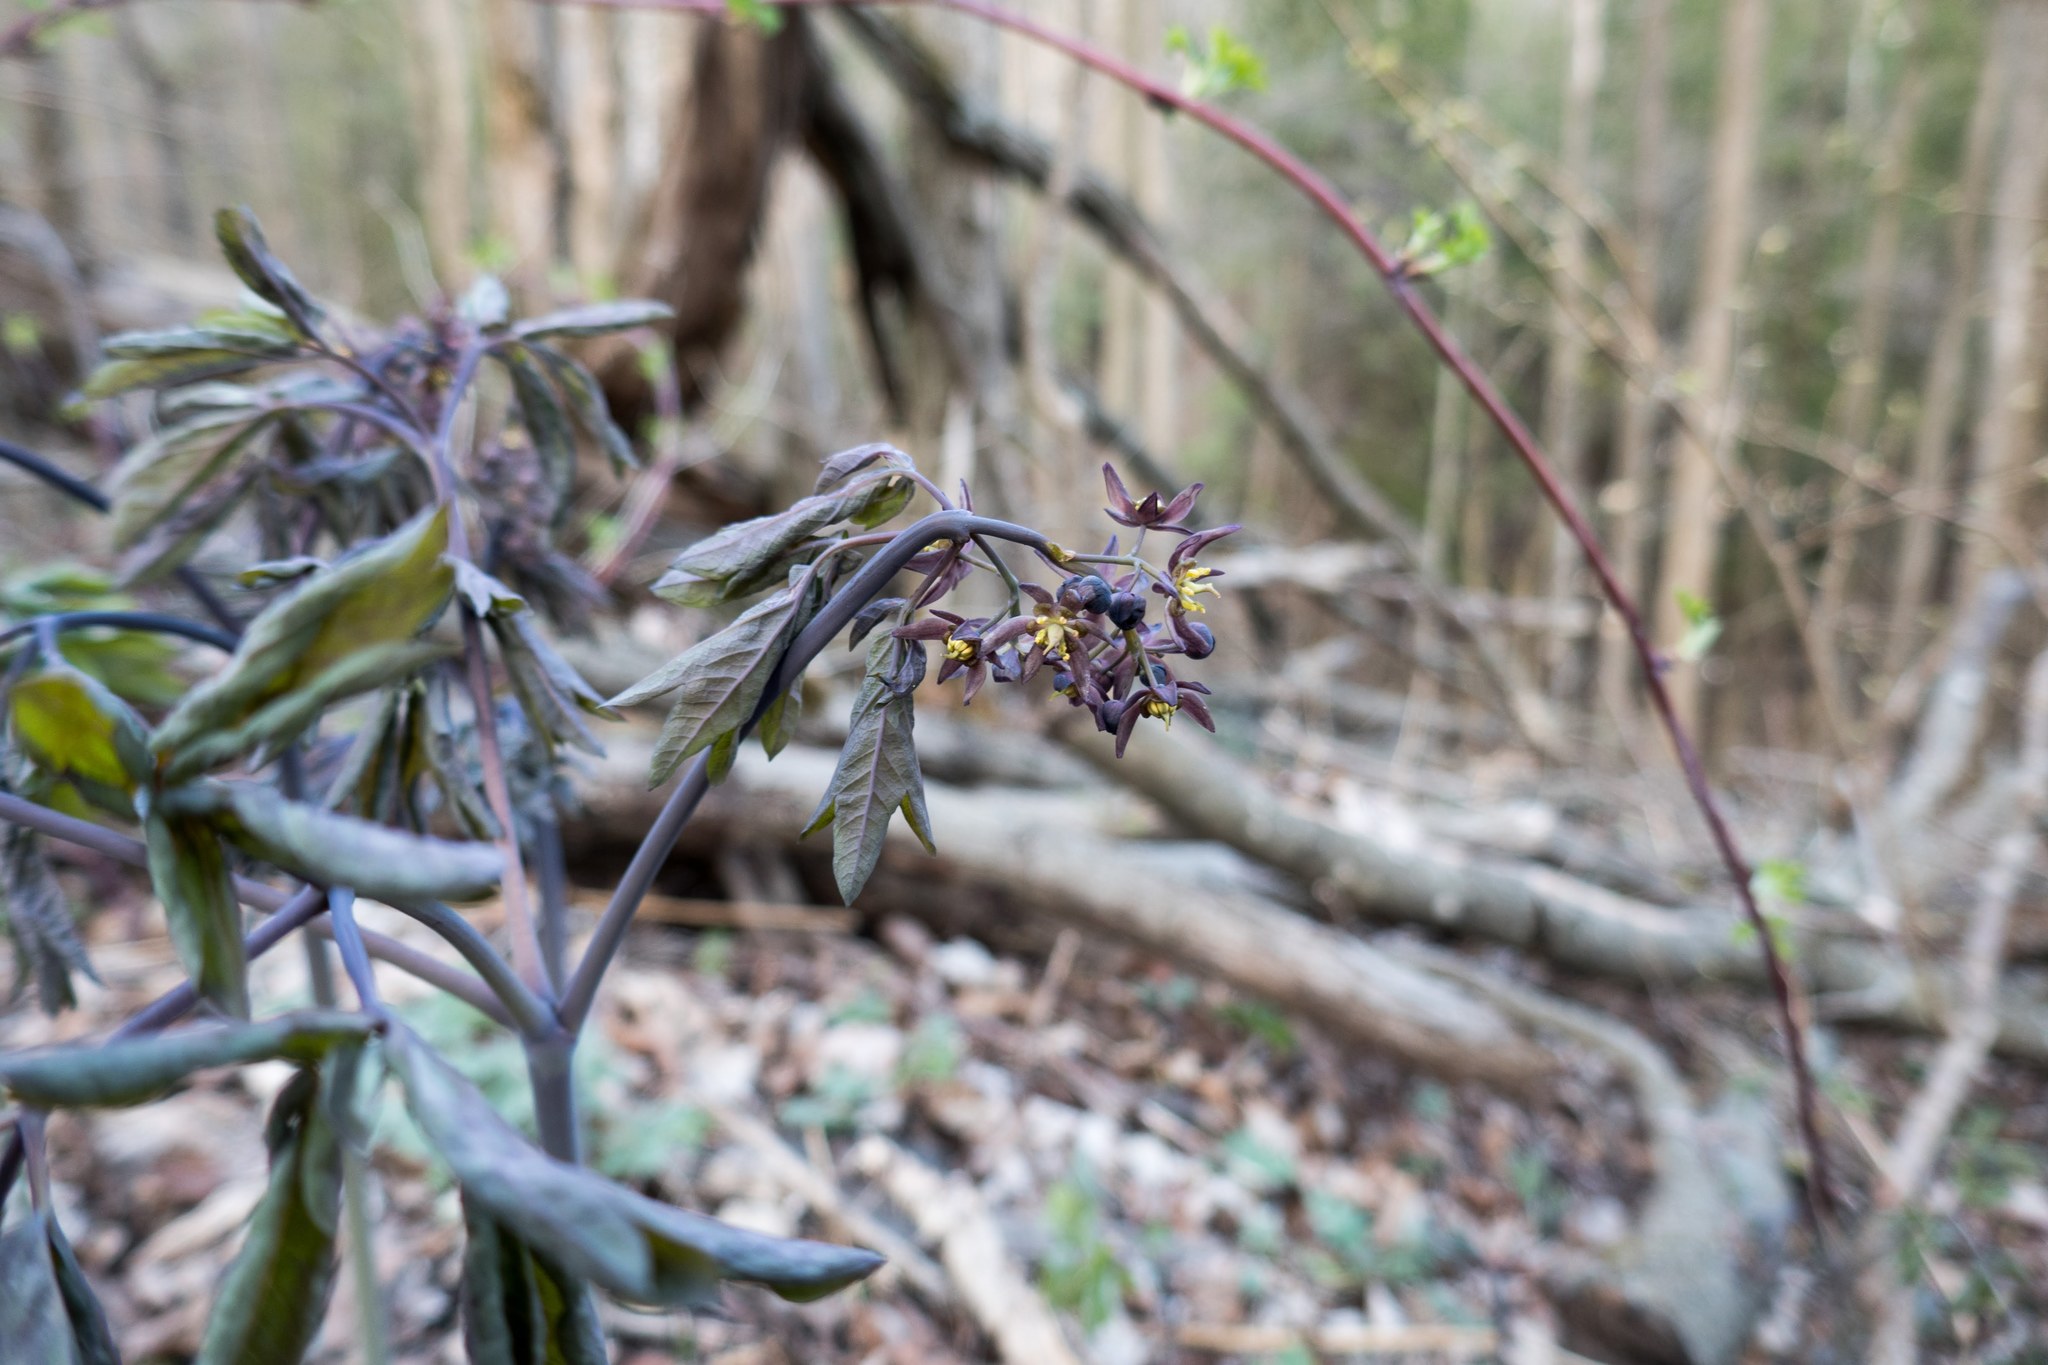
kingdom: Plantae
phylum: Tracheophyta
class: Magnoliopsida
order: Ranunculales
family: Berberidaceae
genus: Caulophyllum
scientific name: Caulophyllum giganteum
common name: Blue cohosh
